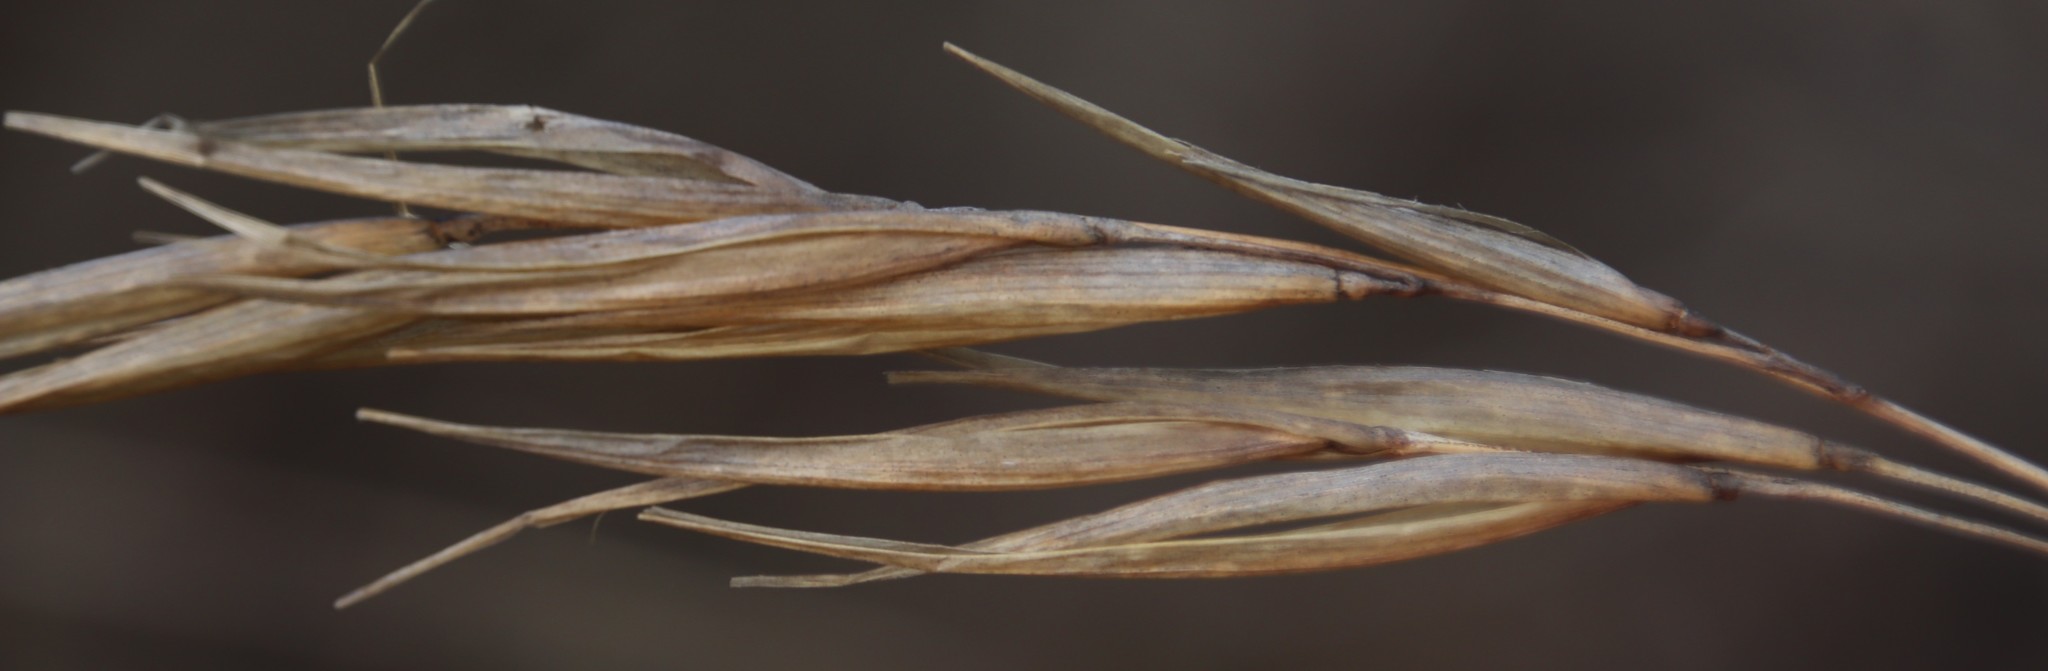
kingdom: Plantae
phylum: Tracheophyta
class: Liliopsida
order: Poales
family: Poaceae
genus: Pseudopentameris
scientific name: Pseudopentameris macrantha
